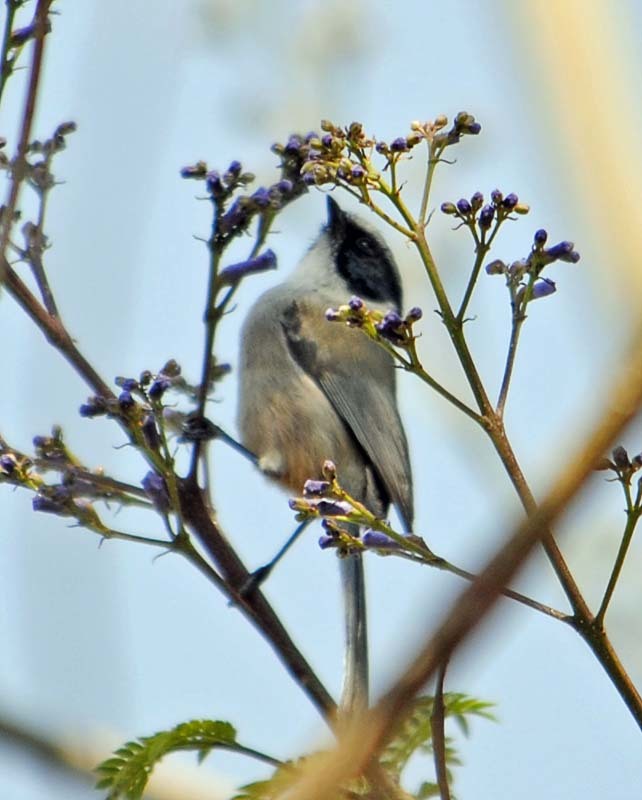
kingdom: Animalia
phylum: Chordata
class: Aves
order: Passeriformes
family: Aegithalidae
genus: Psaltriparus
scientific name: Psaltriparus minimus
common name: American bushtit
